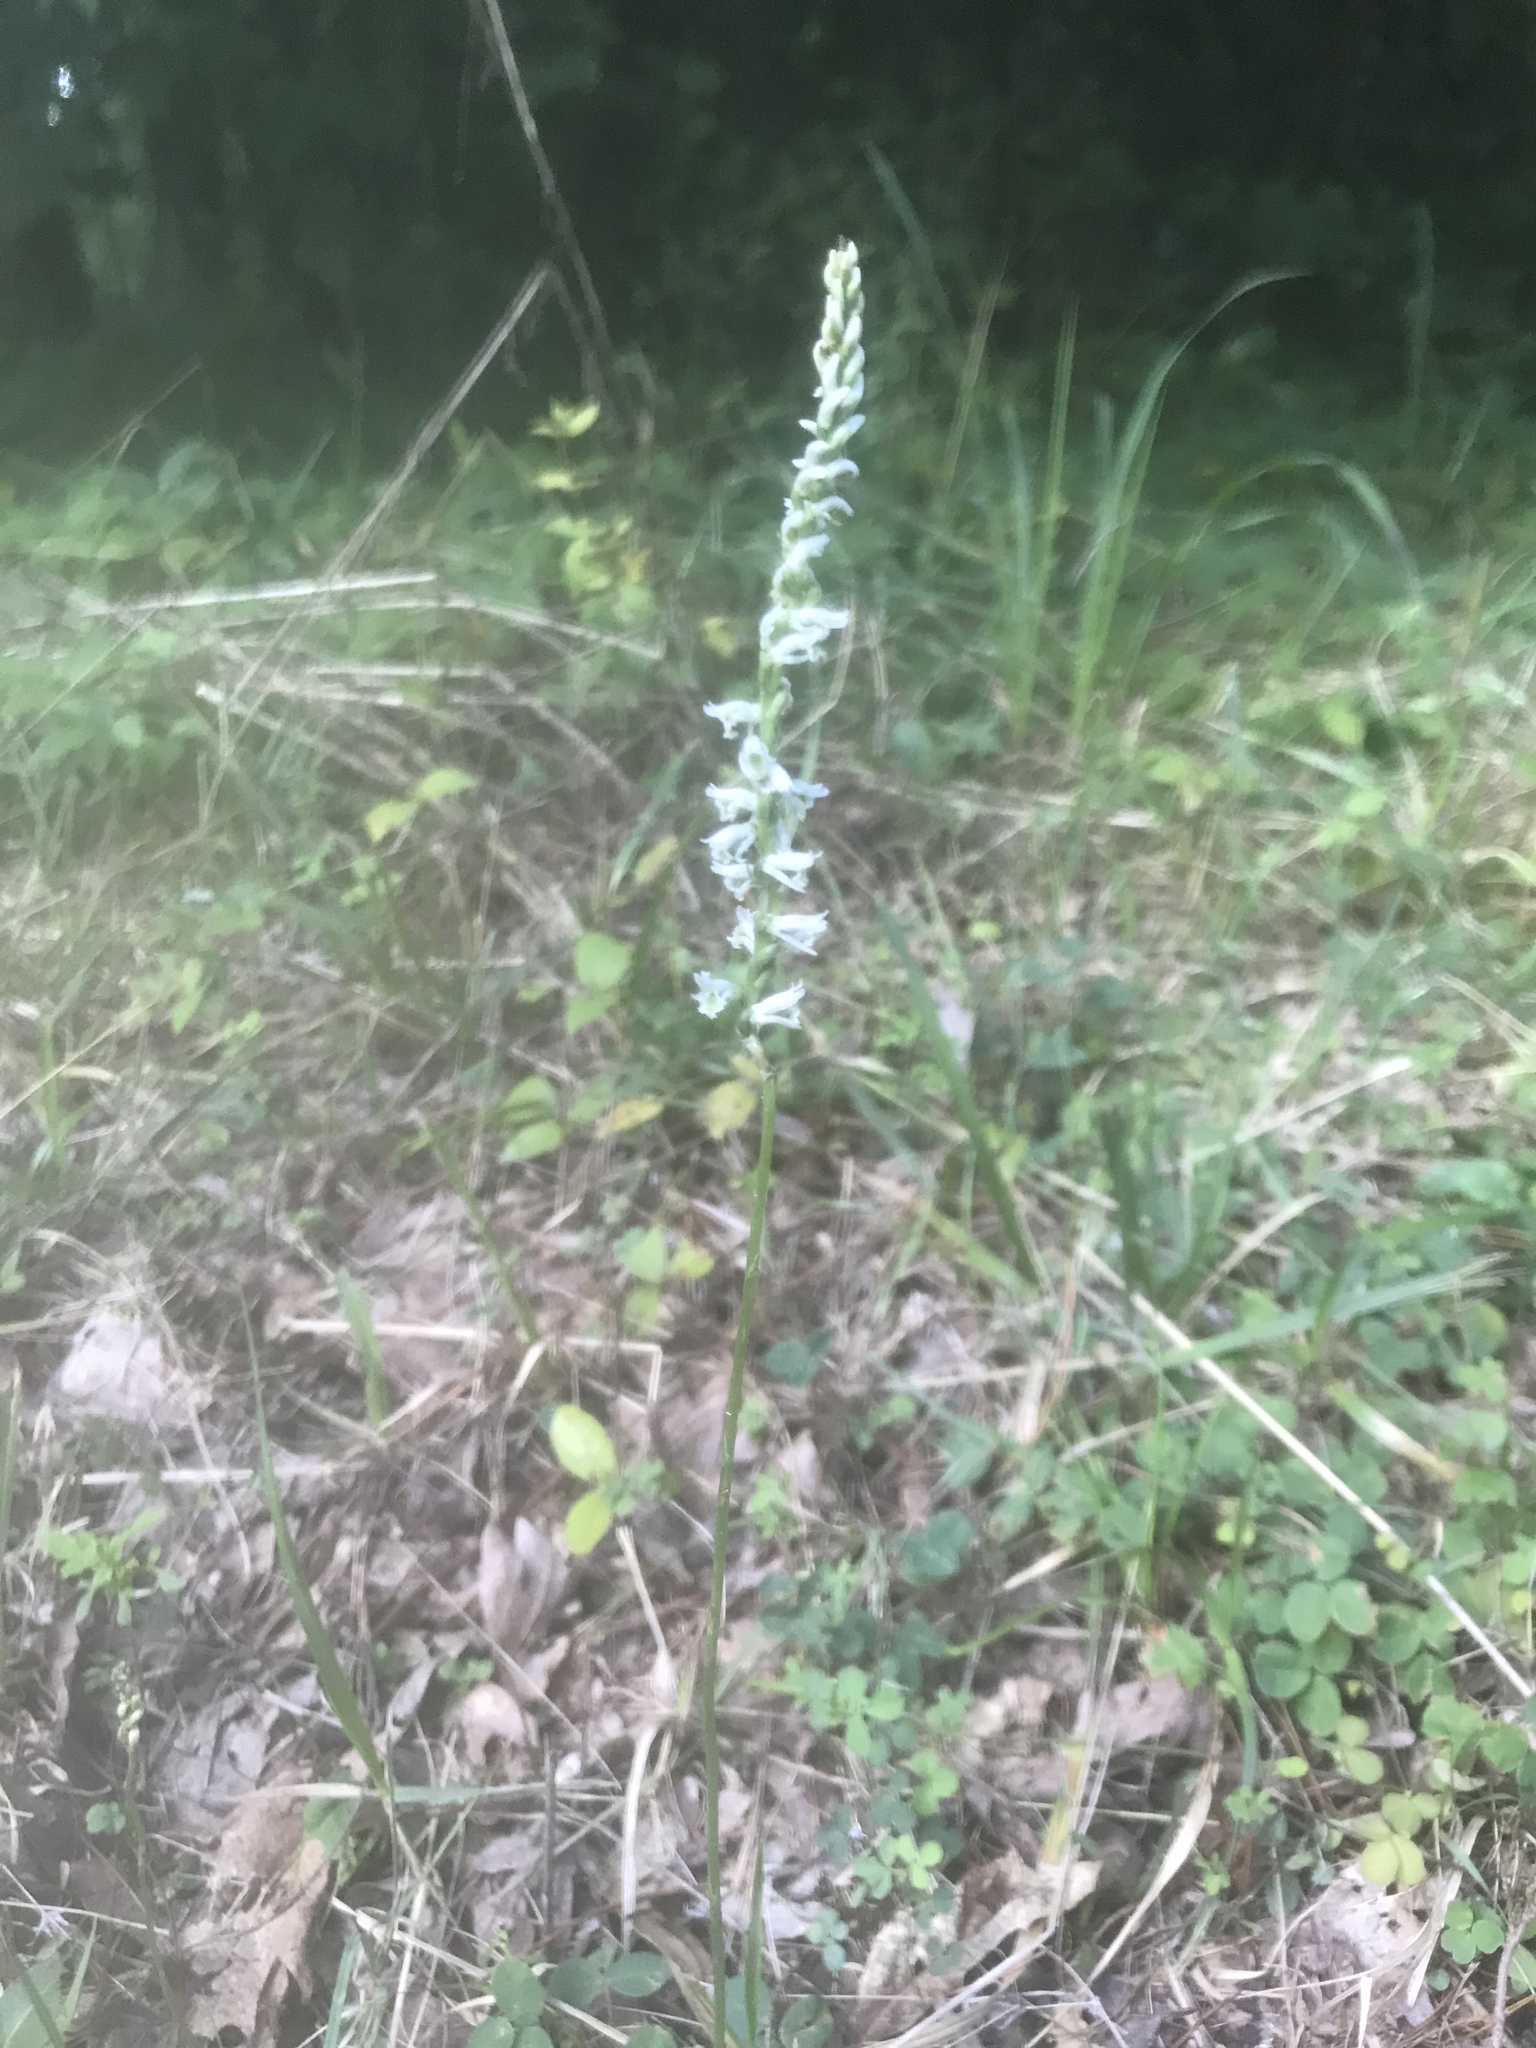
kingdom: Plantae
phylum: Tracheophyta
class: Liliopsida
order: Asparagales
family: Orchidaceae
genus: Spiranthes
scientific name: Spiranthes lacera
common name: Northern slender ladies'-tresses
